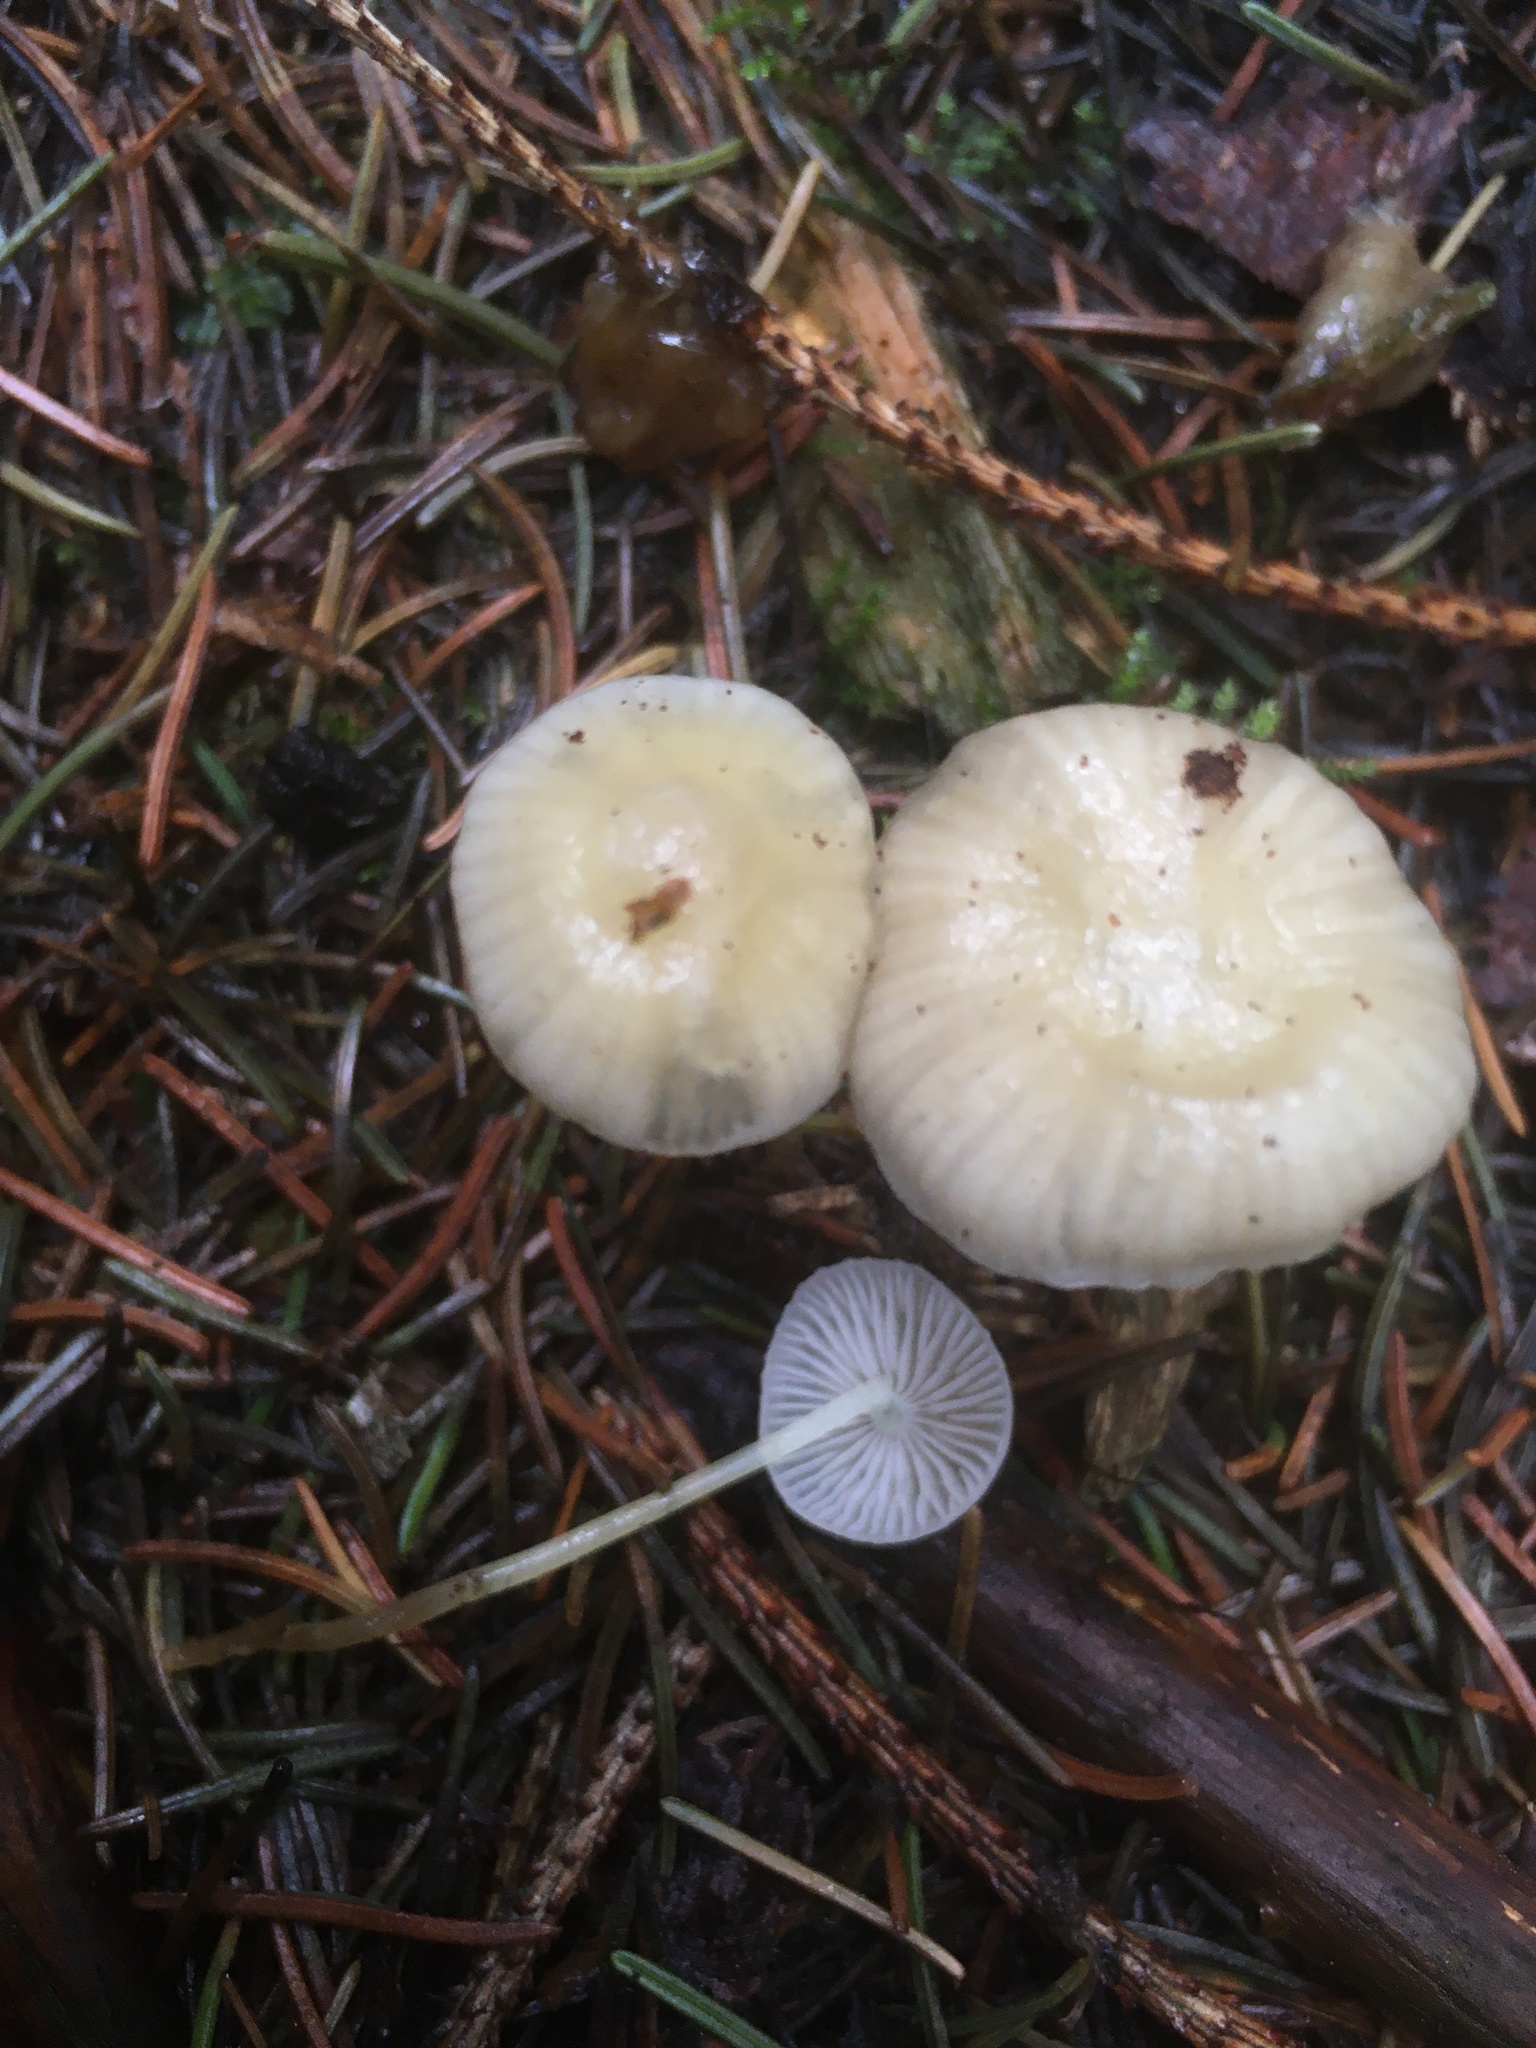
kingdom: Fungi
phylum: Basidiomycota
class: Agaricomycetes
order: Agaricales
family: Tricholomataceae
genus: Clitocybe
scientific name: Clitocybe fragrans
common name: Fragrant funnel
